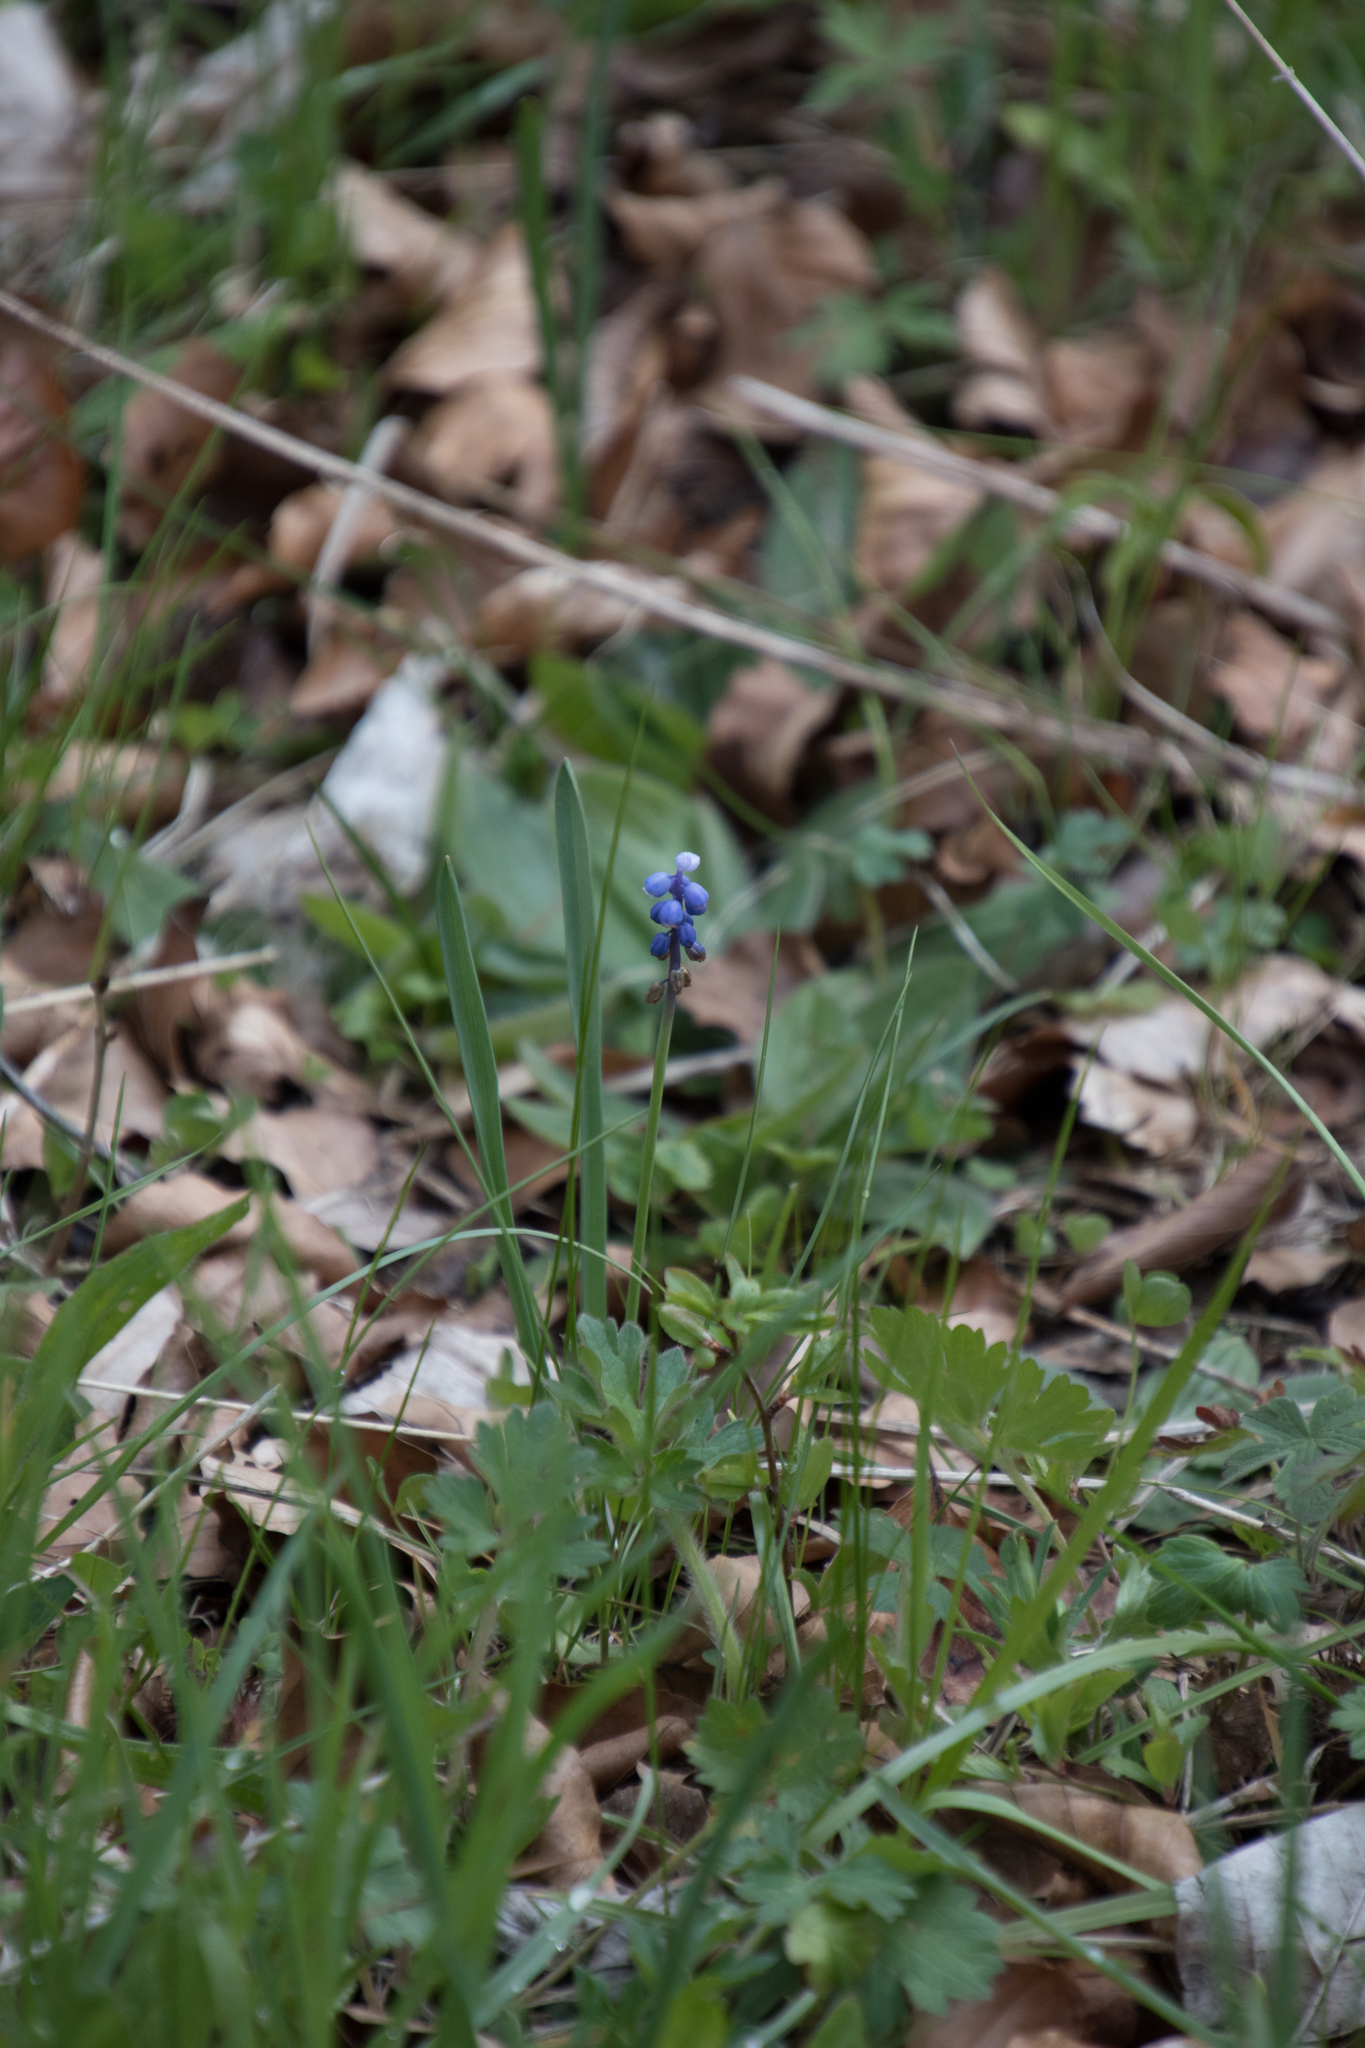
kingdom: Plantae
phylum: Tracheophyta
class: Liliopsida
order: Asparagales
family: Asparagaceae
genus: Muscari
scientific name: Muscari botryoides
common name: Compact grape-hyacinth
